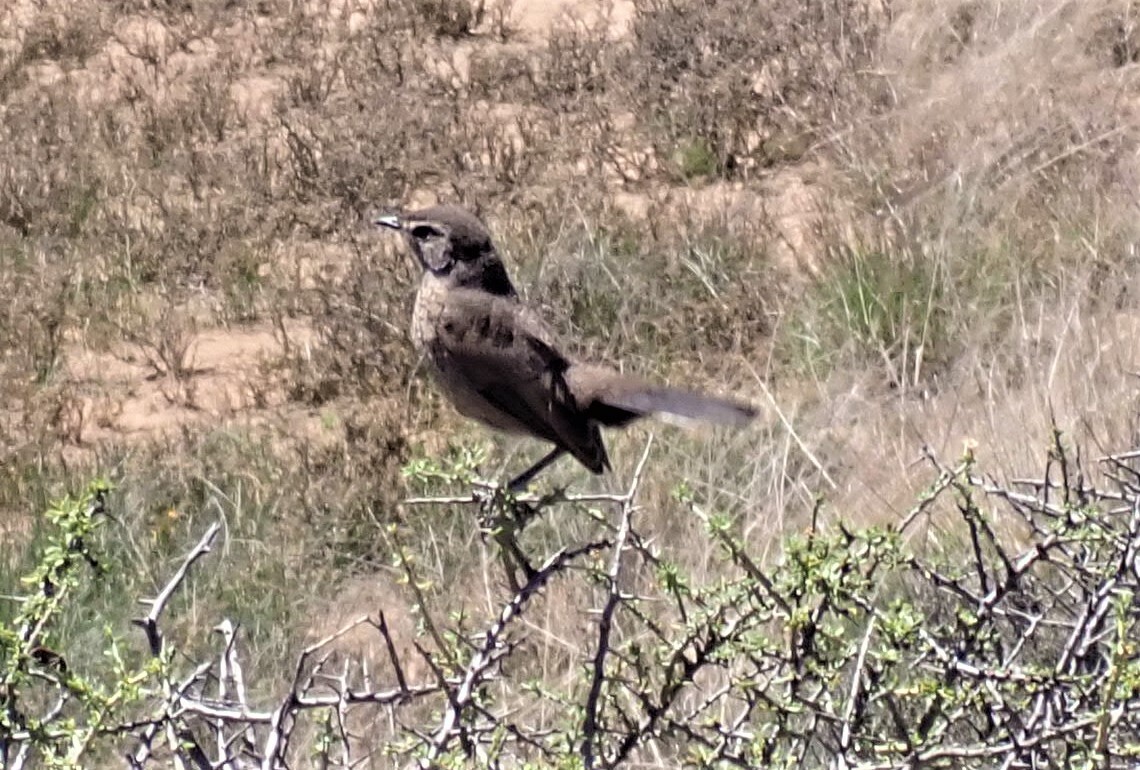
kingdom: Animalia
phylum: Chordata
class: Aves
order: Passeriformes
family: Muscicapidae
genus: Erythropygia
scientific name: Erythropygia coryphoeus
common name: Karoo scrub robin
